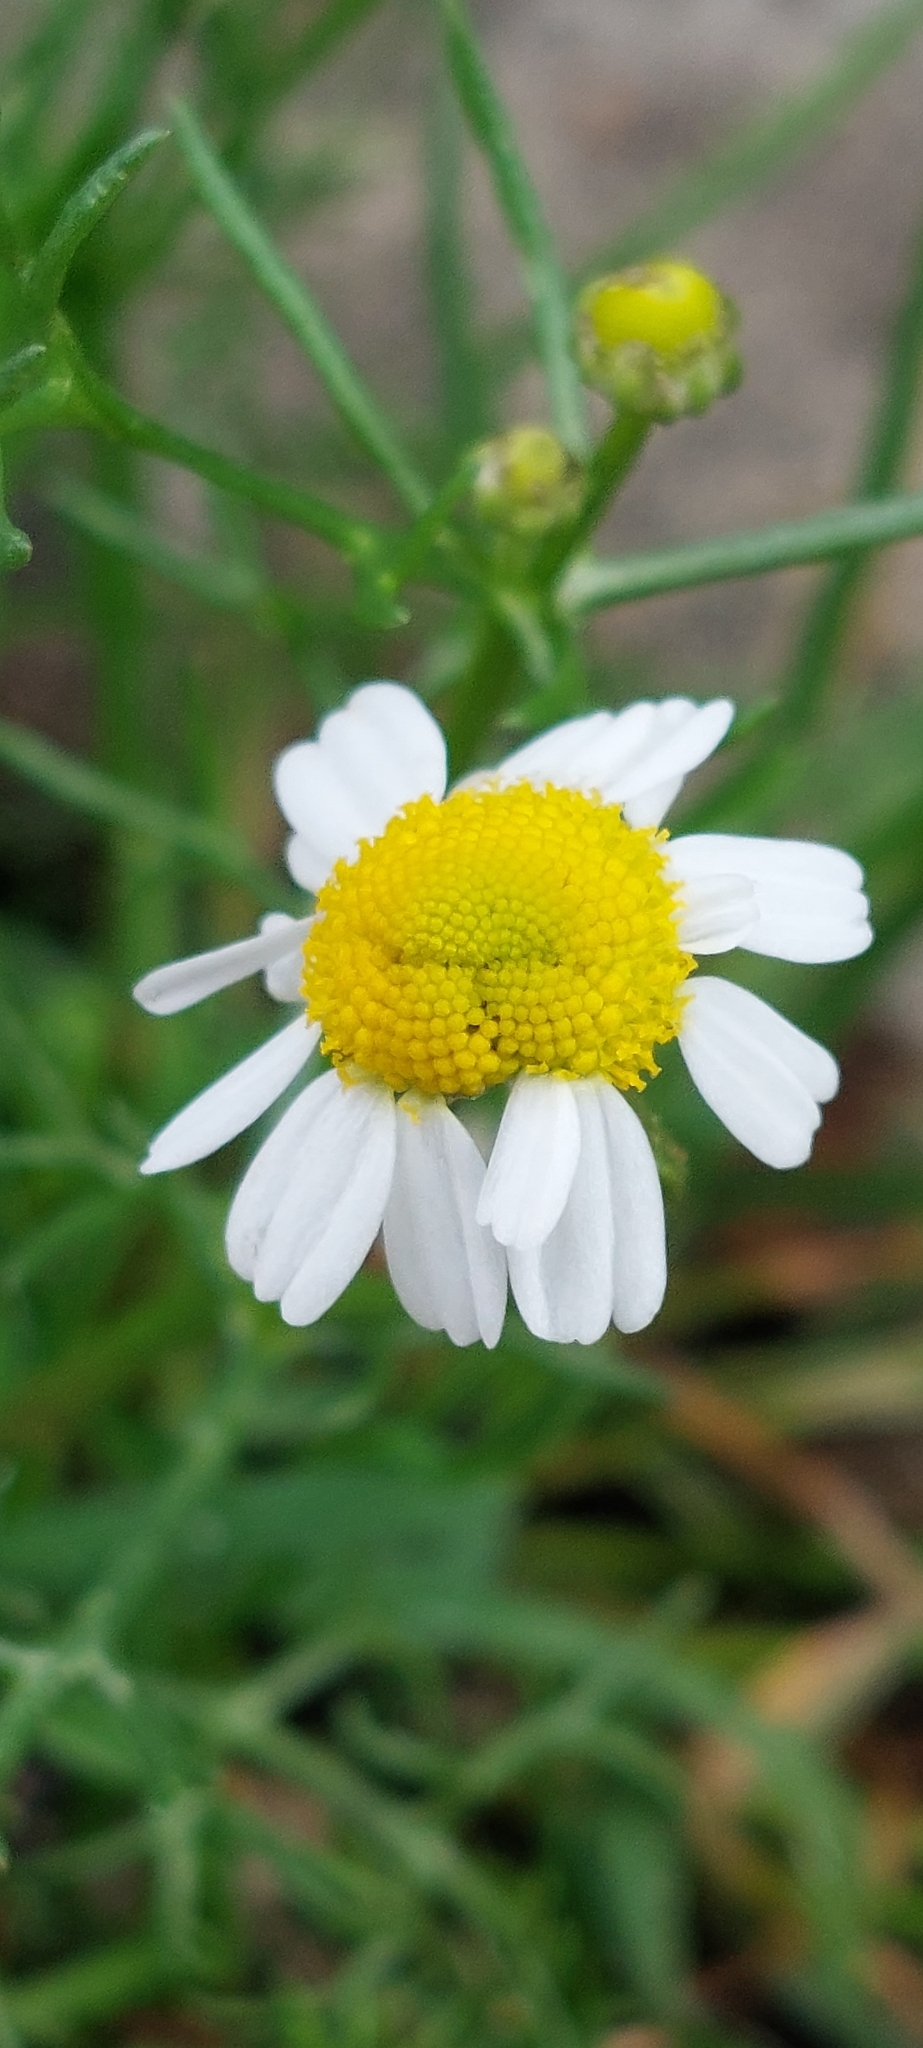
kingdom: Plantae
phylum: Tracheophyta
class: Magnoliopsida
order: Asterales
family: Asteraceae
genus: Matricaria
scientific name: Matricaria chamomilla
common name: Scented mayweed
